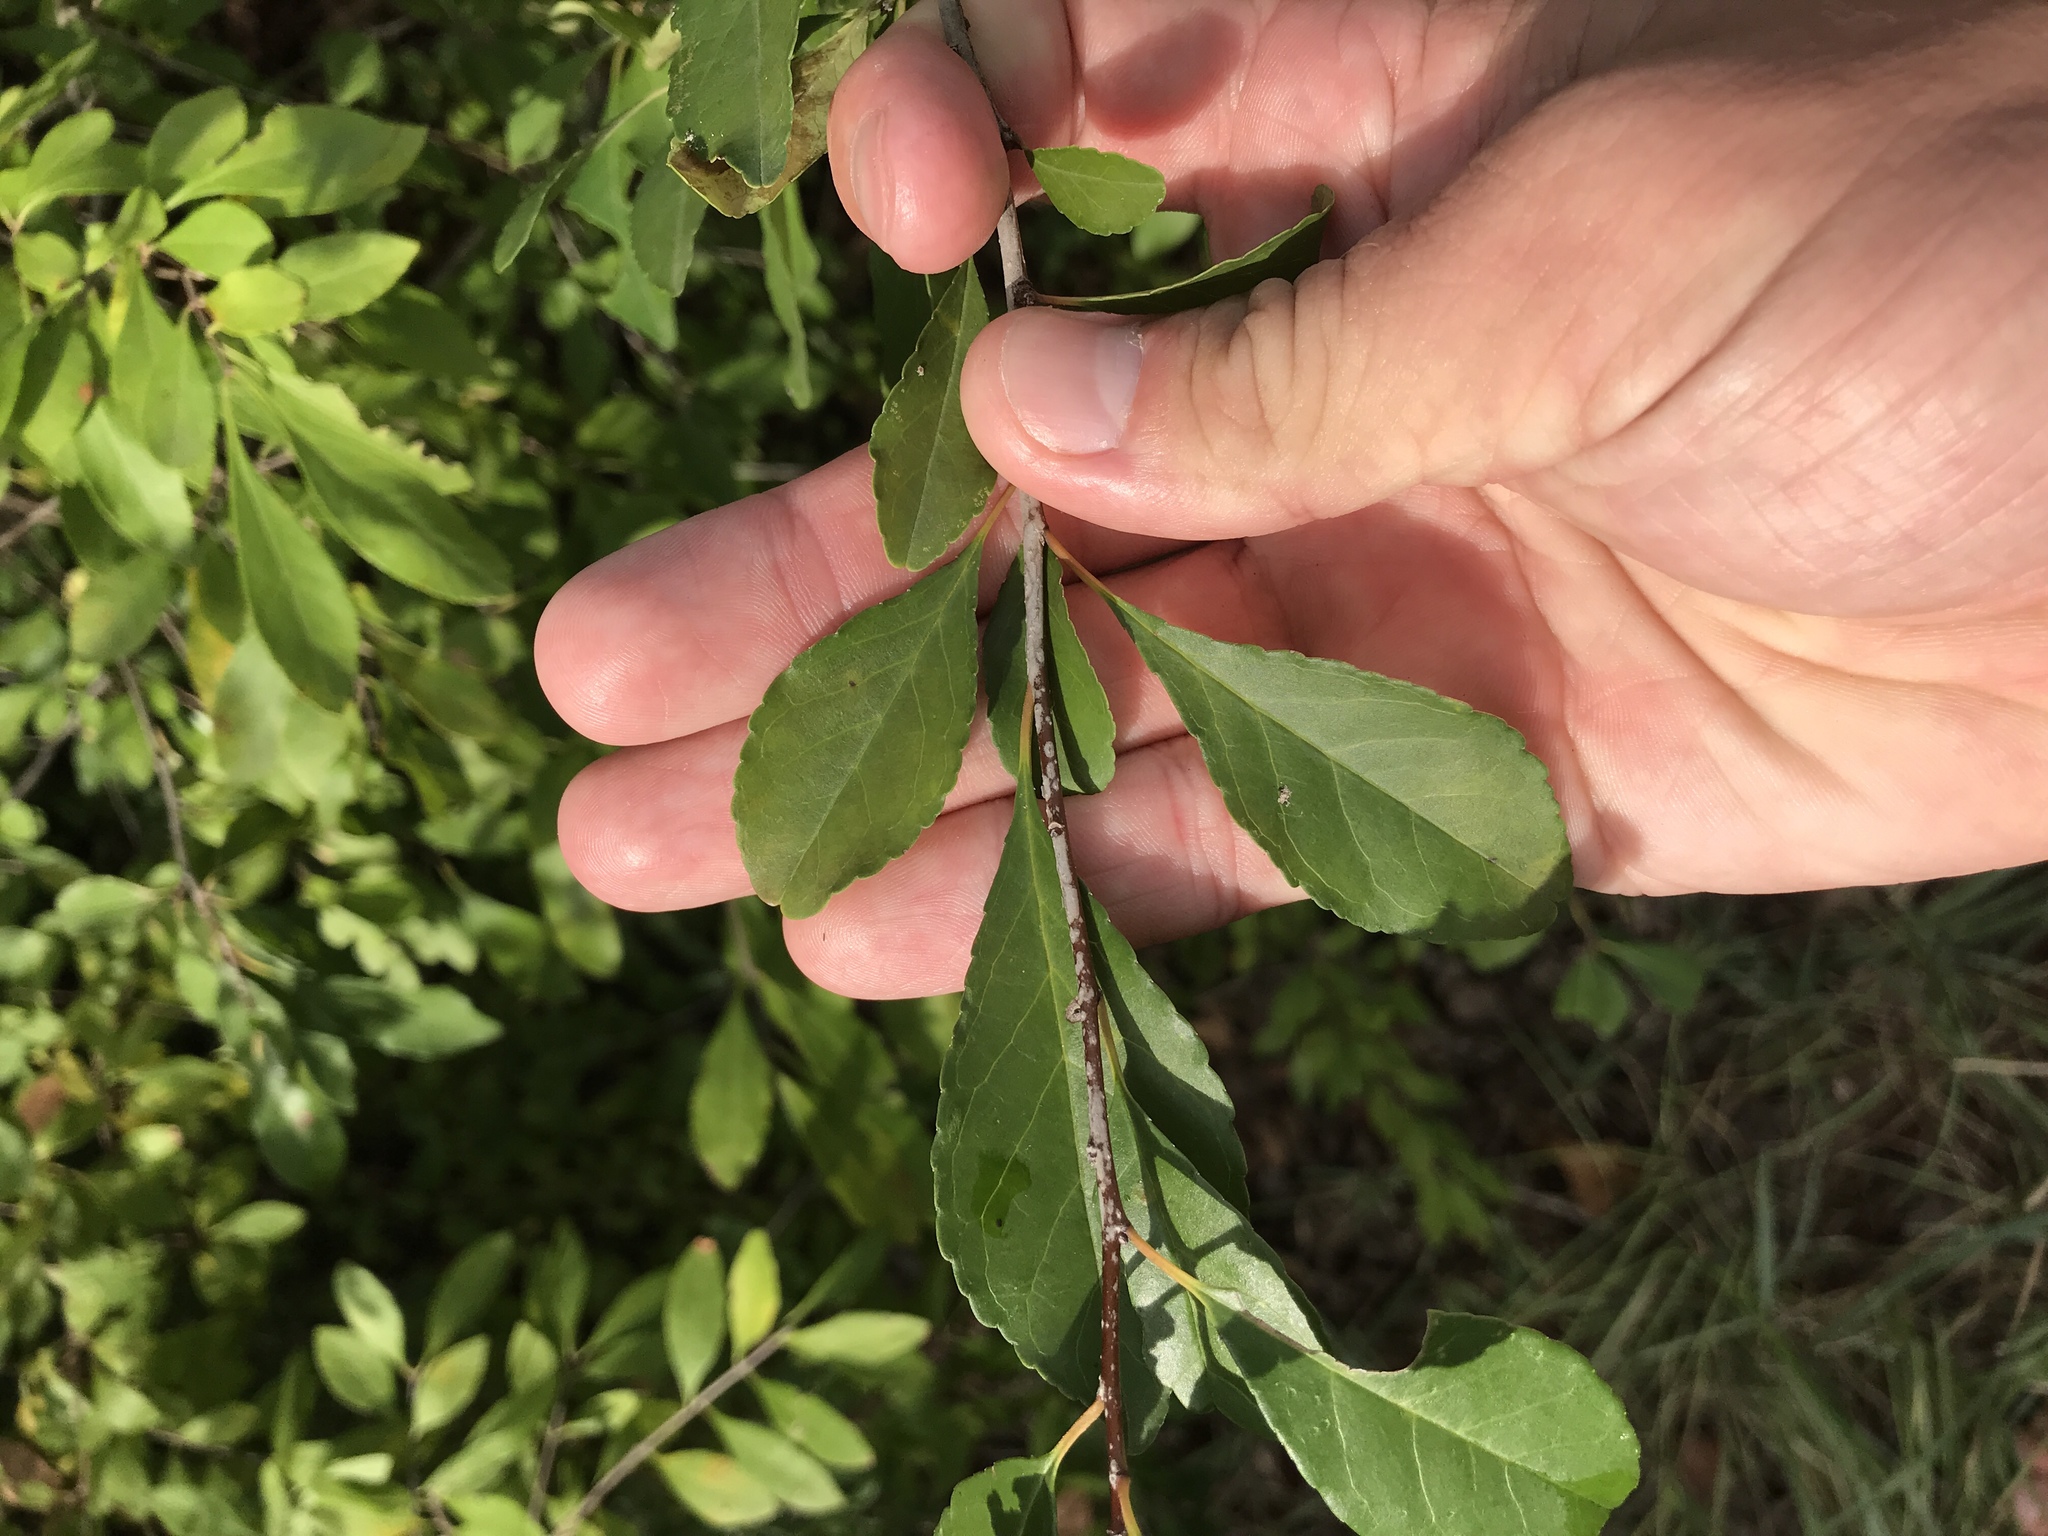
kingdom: Plantae
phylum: Tracheophyta
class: Magnoliopsida
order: Aquifoliales
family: Aquifoliaceae
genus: Ilex
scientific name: Ilex decidua
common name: Possum-haw
